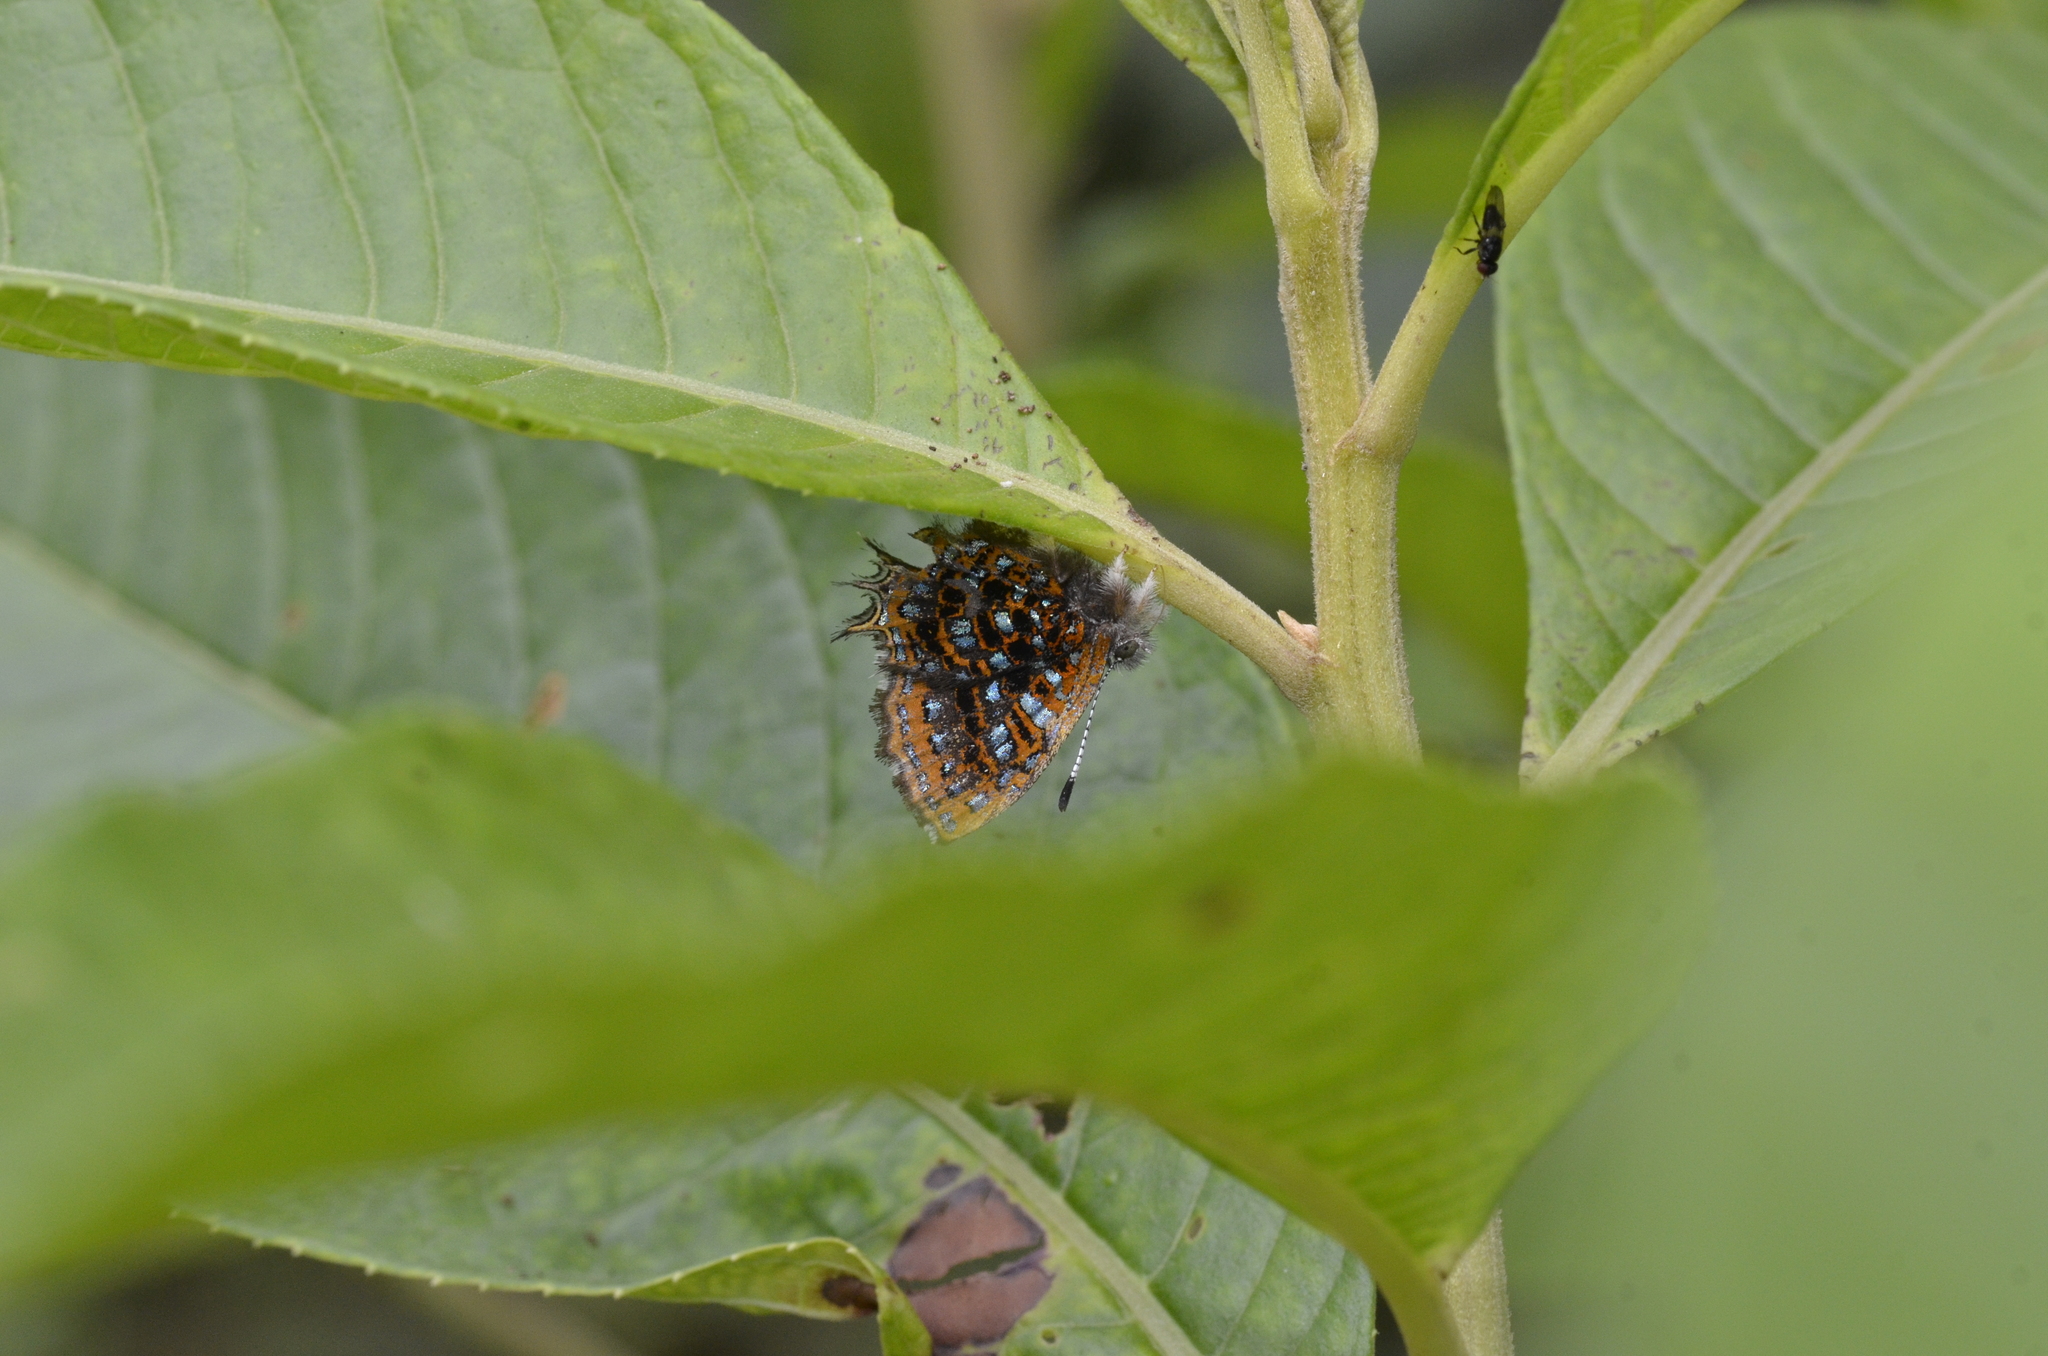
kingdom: Animalia
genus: Charis
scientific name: Charis
